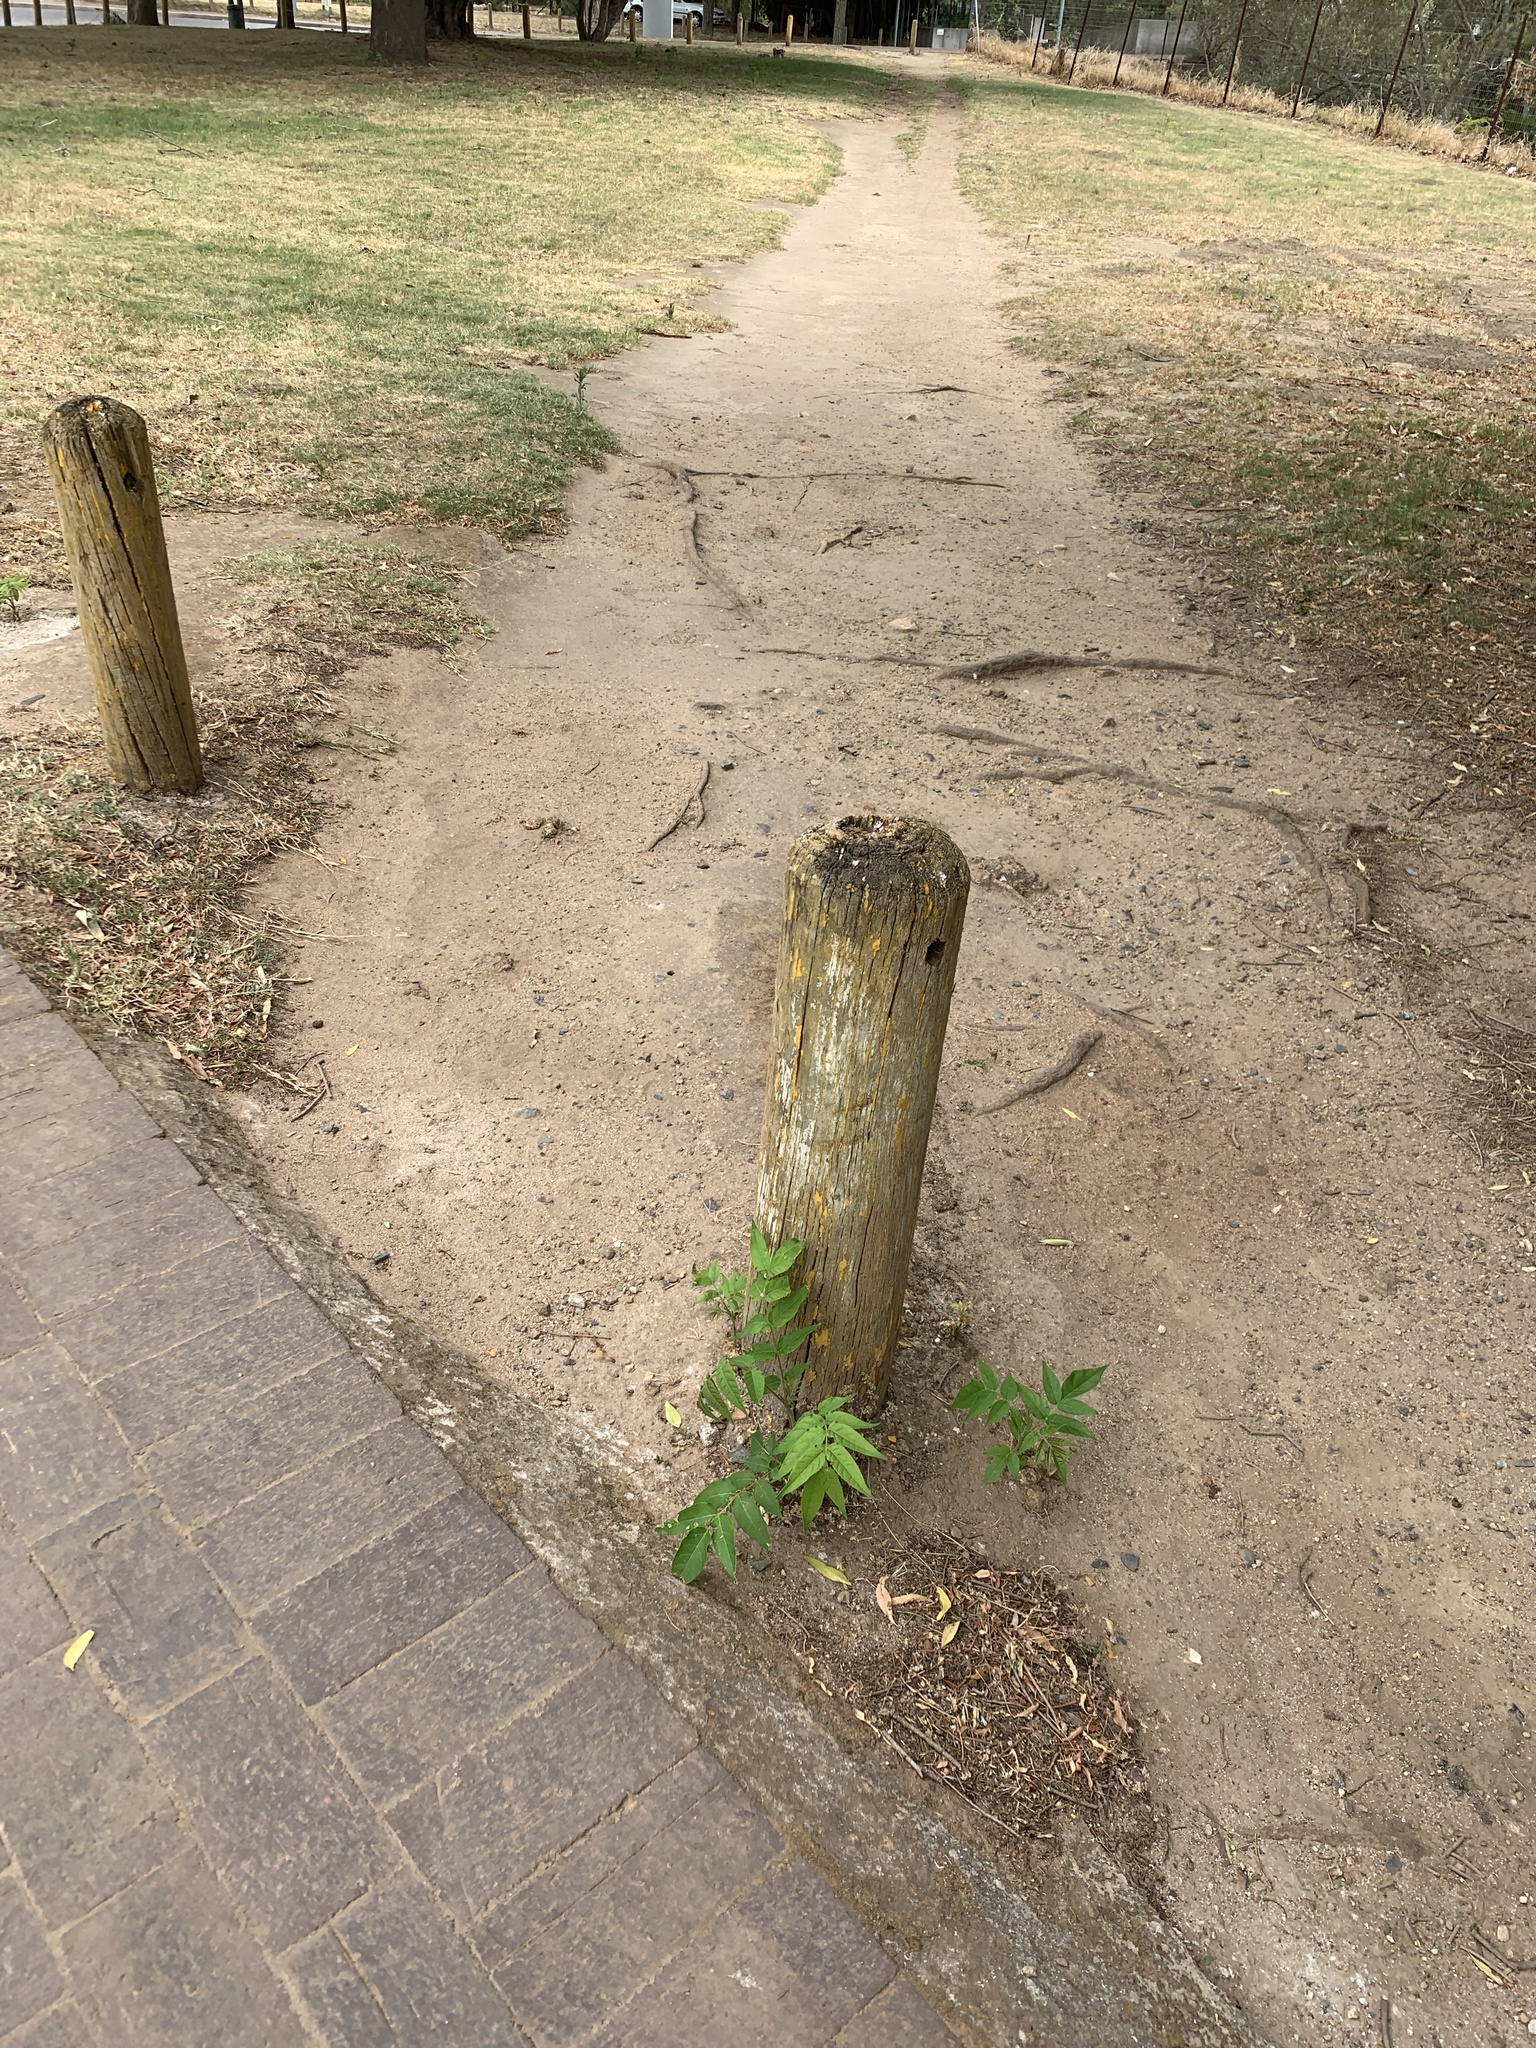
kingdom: Plantae
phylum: Tracheophyta
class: Magnoliopsida
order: Sapindales
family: Simaroubaceae
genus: Ailanthus
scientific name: Ailanthus altissima
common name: Tree-of-heaven
